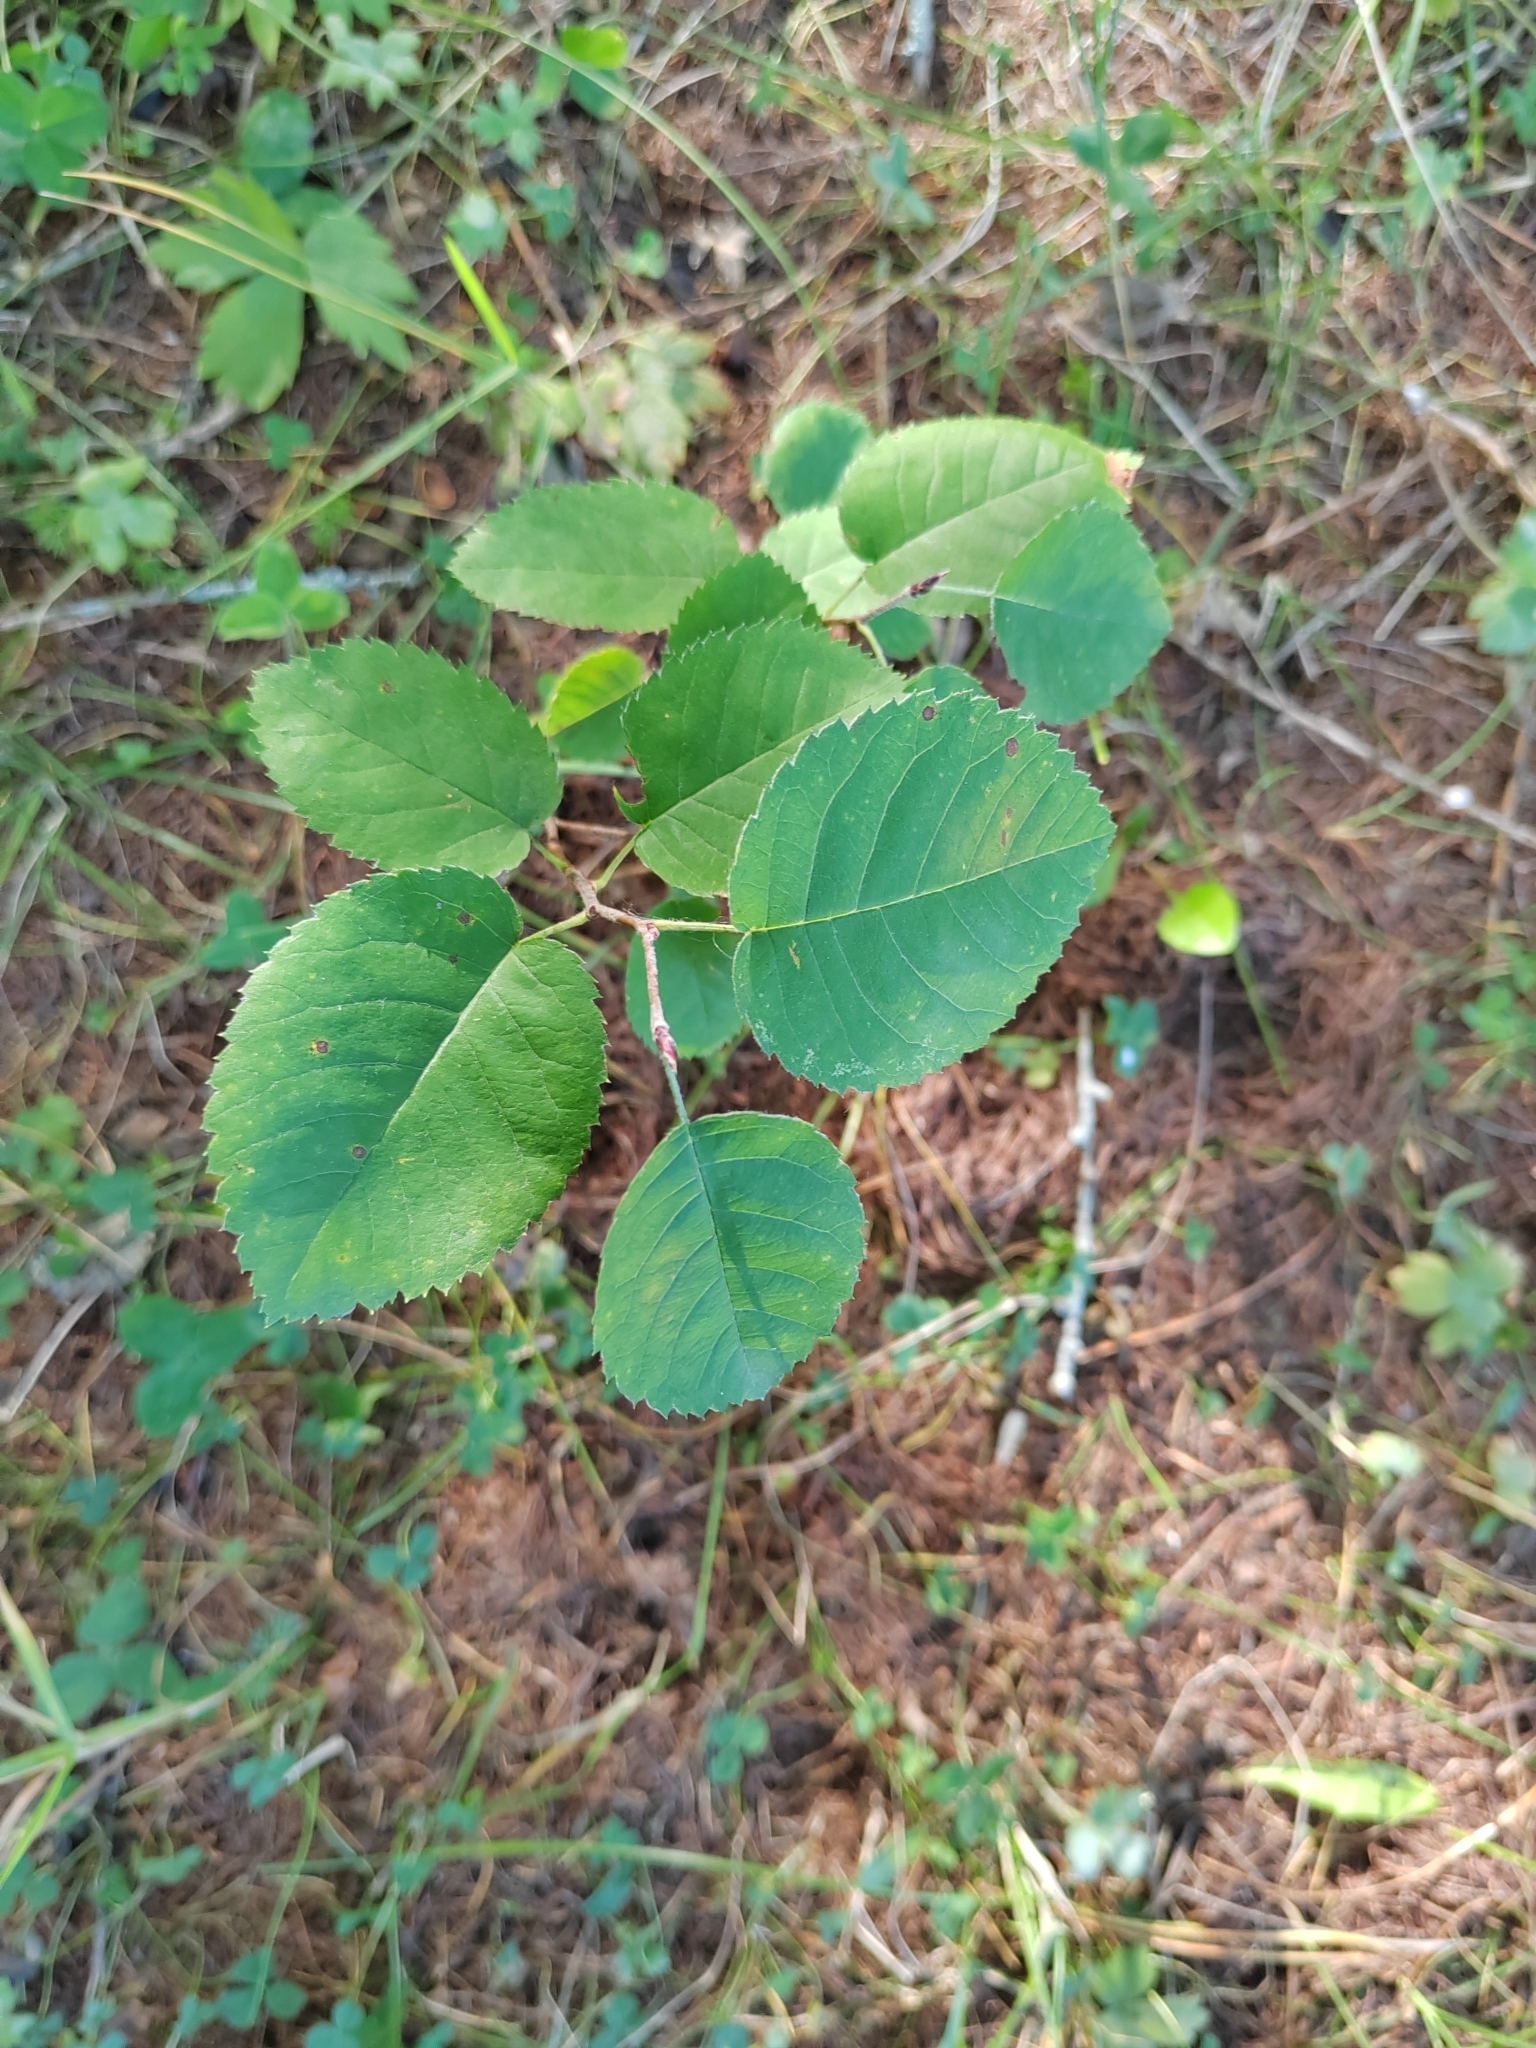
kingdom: Plantae
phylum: Tracheophyta
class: Magnoliopsida
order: Rosales
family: Rosaceae
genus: Amelanchier
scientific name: Amelanchier
